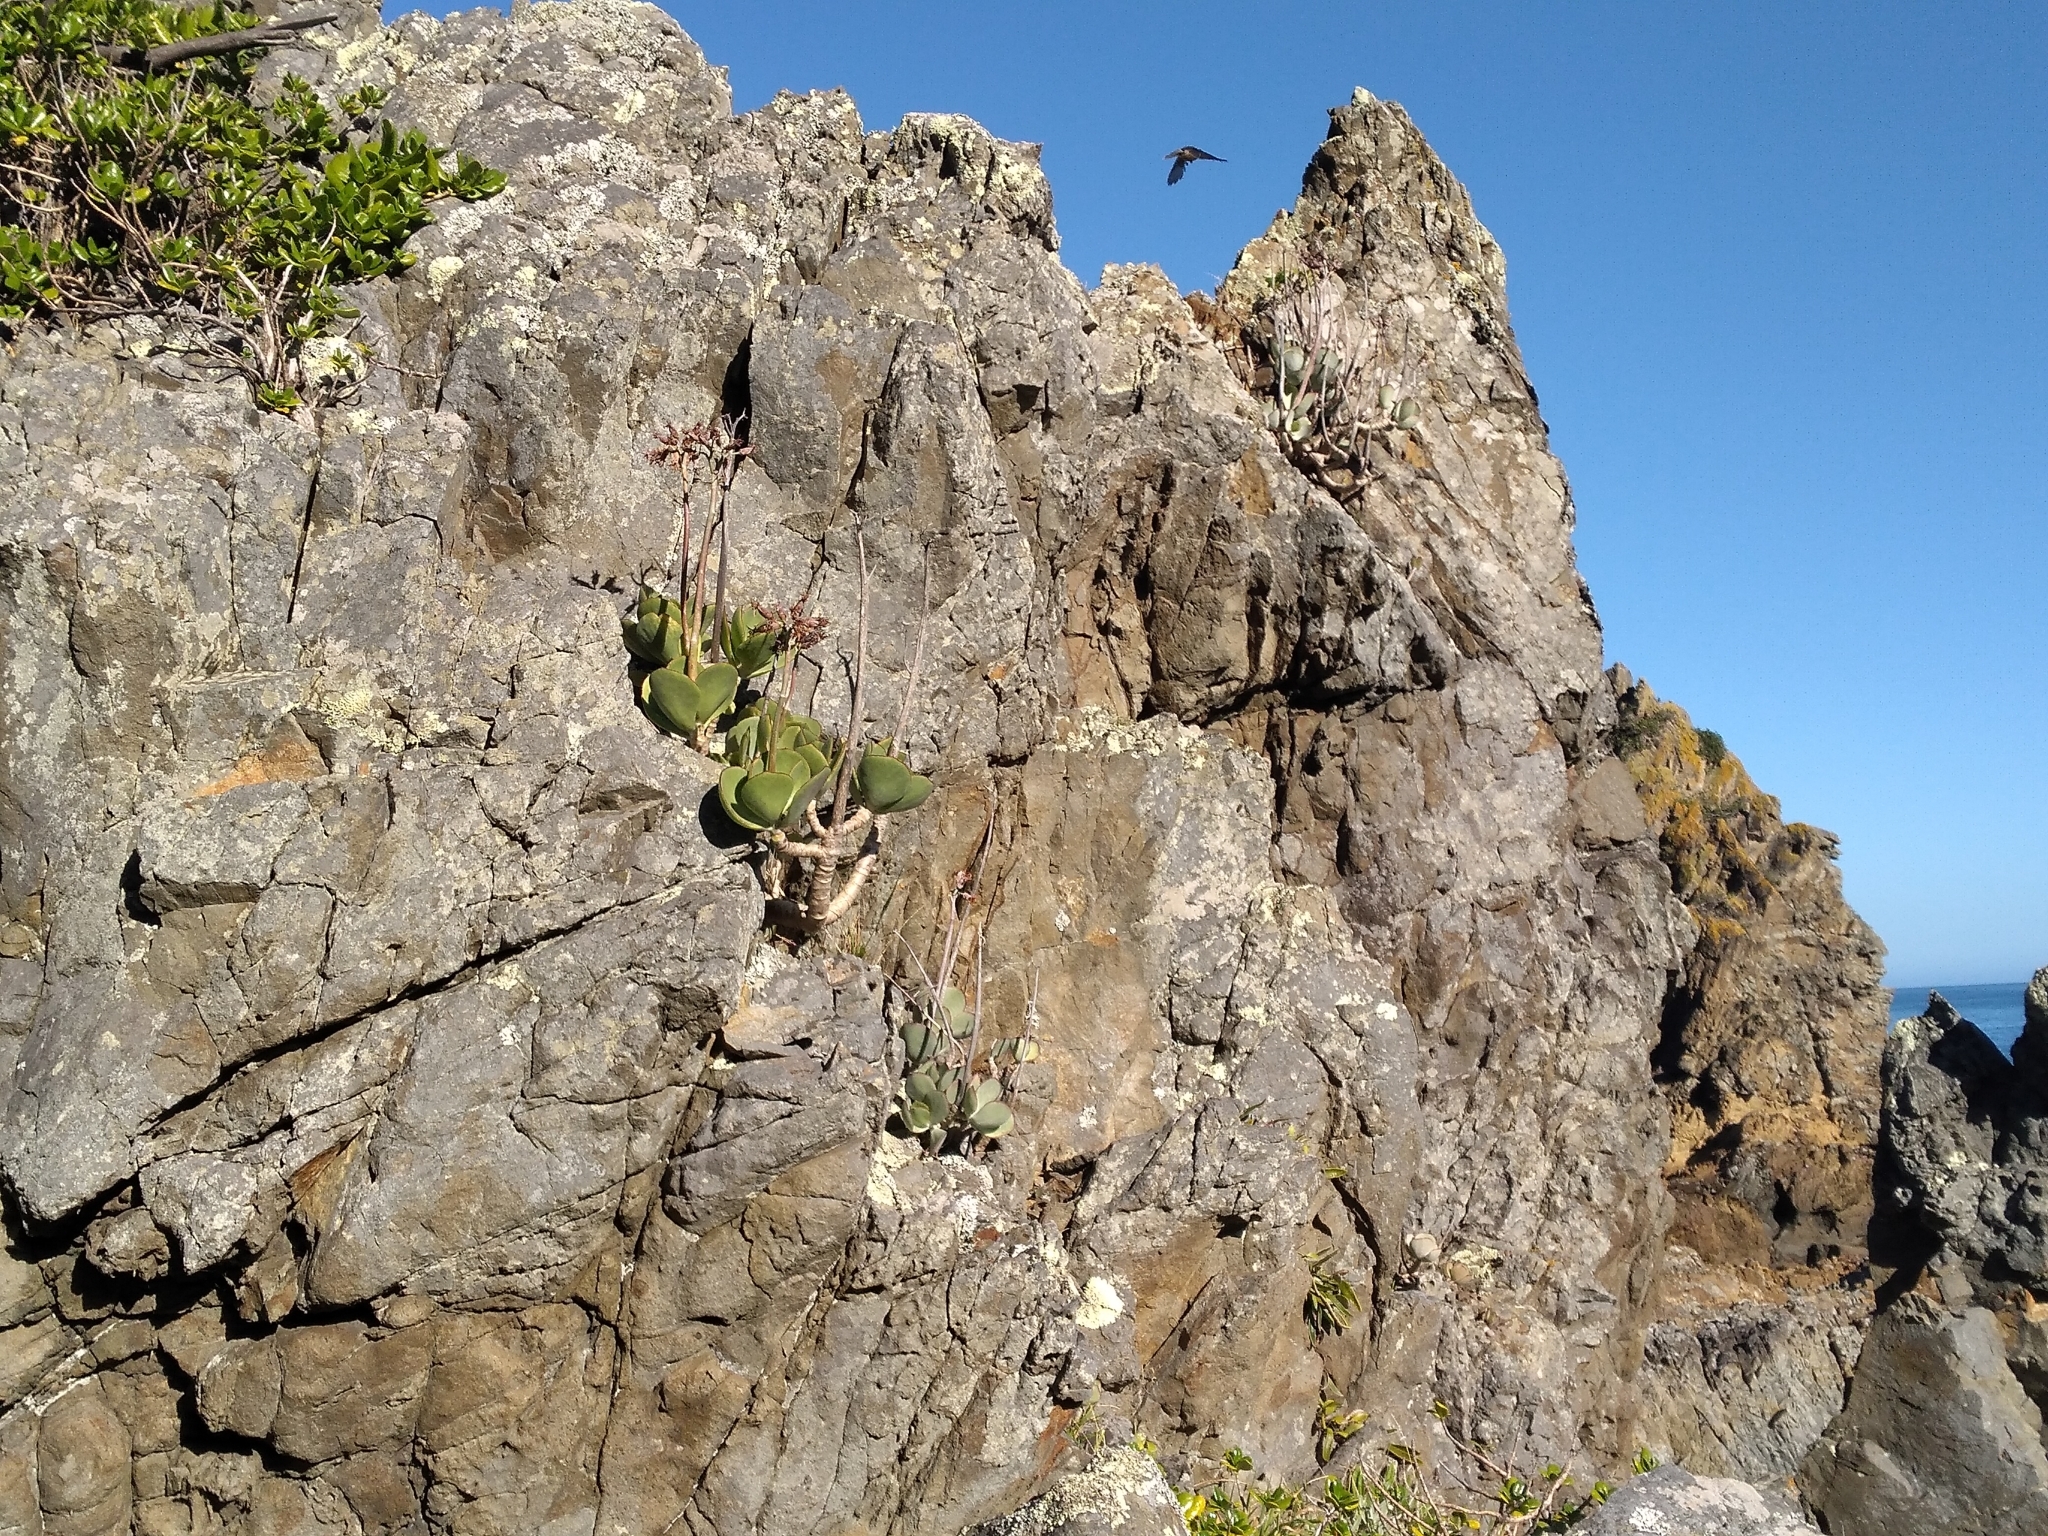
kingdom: Plantae
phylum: Tracheophyta
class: Magnoliopsida
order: Saxifragales
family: Crassulaceae
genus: Cotyledon
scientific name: Cotyledon orbiculata
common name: Pig's ear
